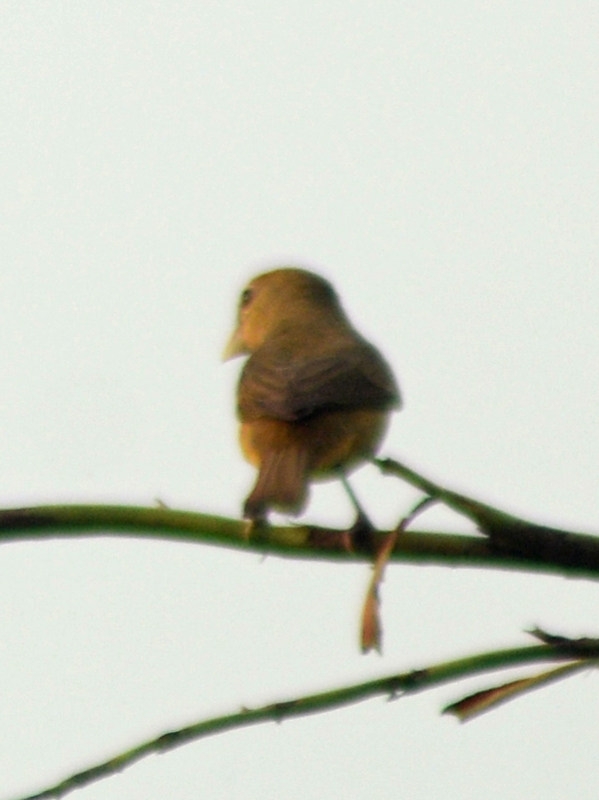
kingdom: Animalia
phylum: Chordata
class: Aves
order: Passeriformes
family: Cardinalidae
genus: Piranga
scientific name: Piranga rubra
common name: Summer tanager
